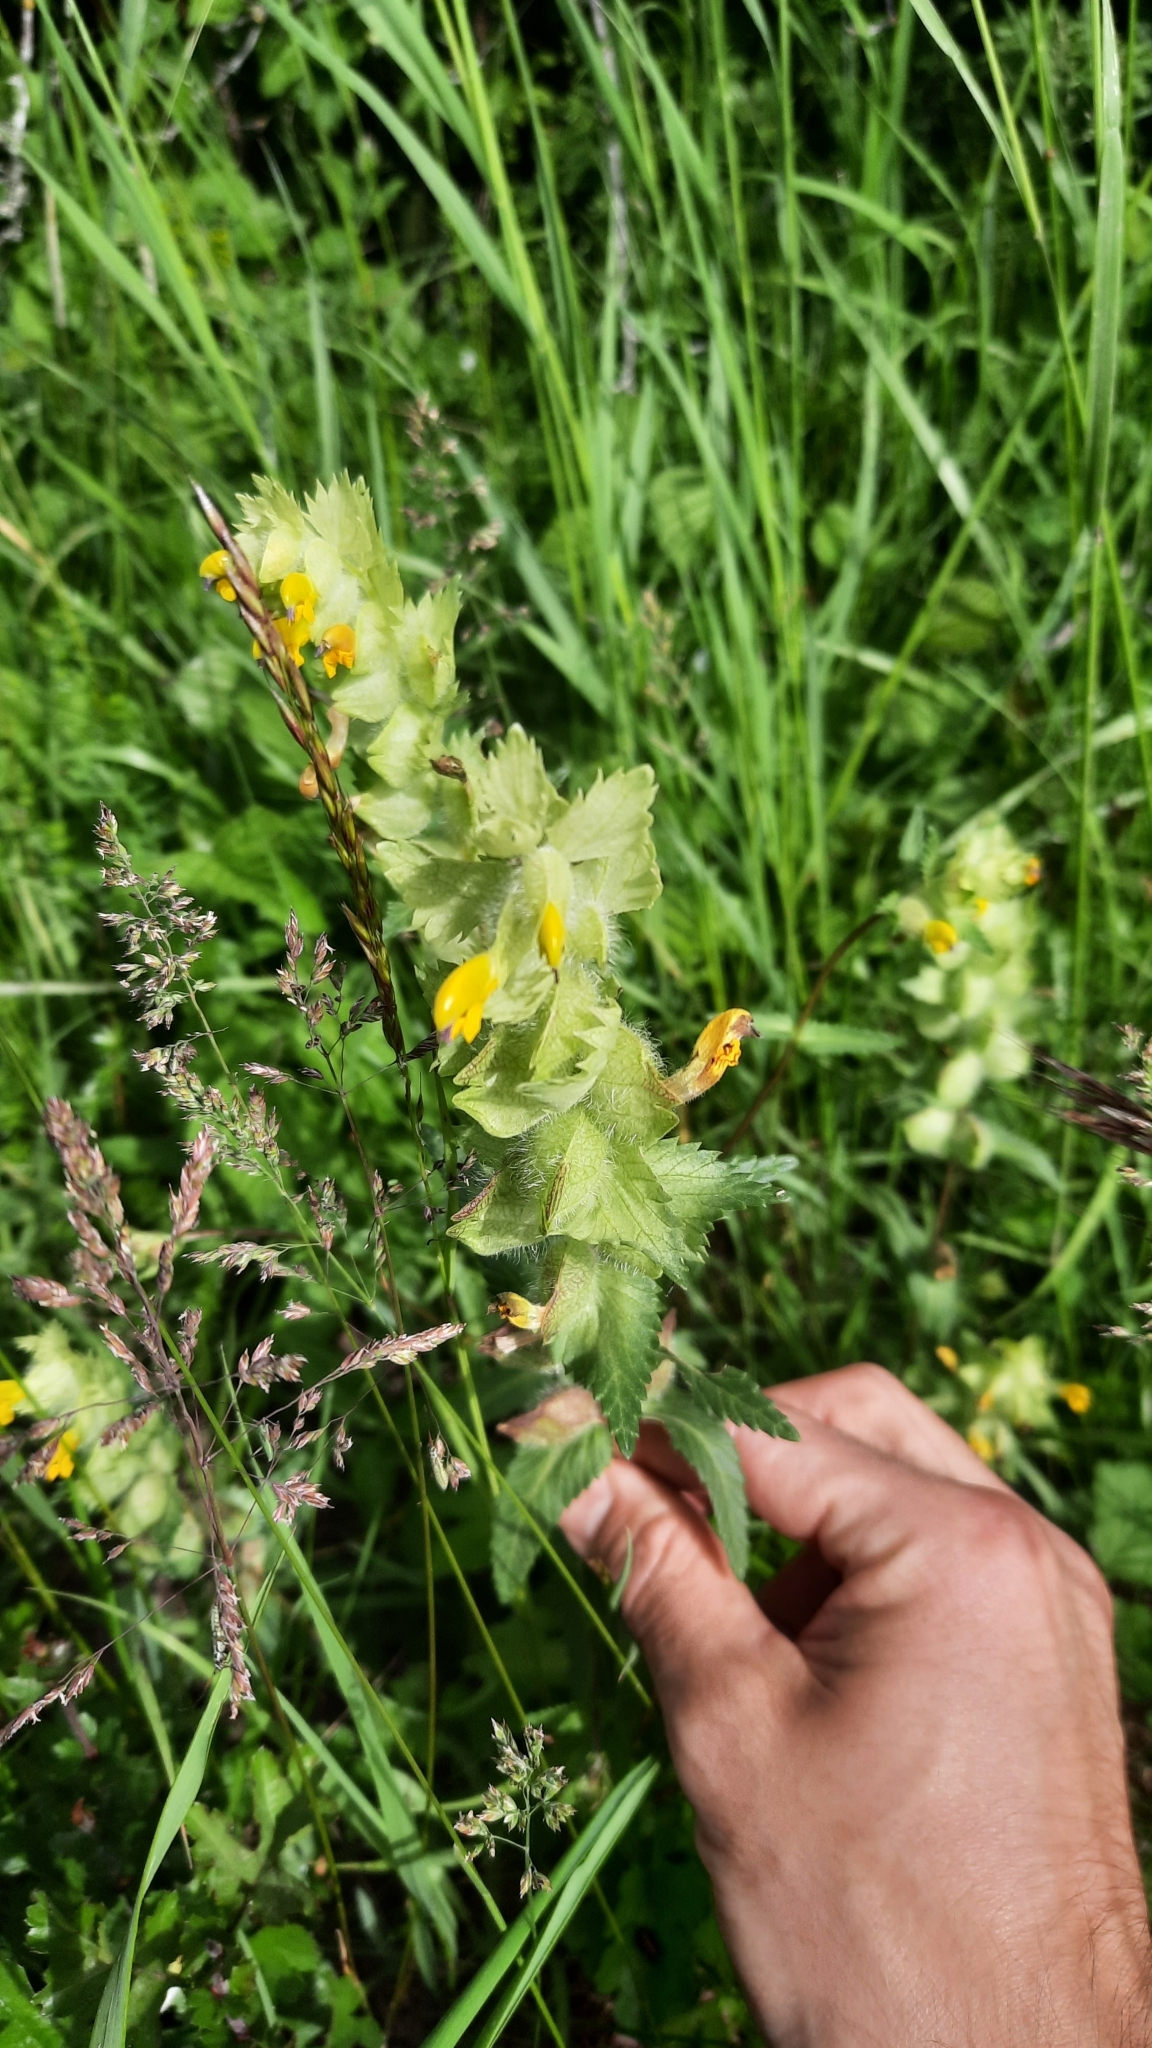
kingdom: Plantae
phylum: Tracheophyta
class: Magnoliopsida
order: Lamiales
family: Orobanchaceae
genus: Rhinanthus
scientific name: Rhinanthus alectorolophus
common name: Greater yellow-rattle
